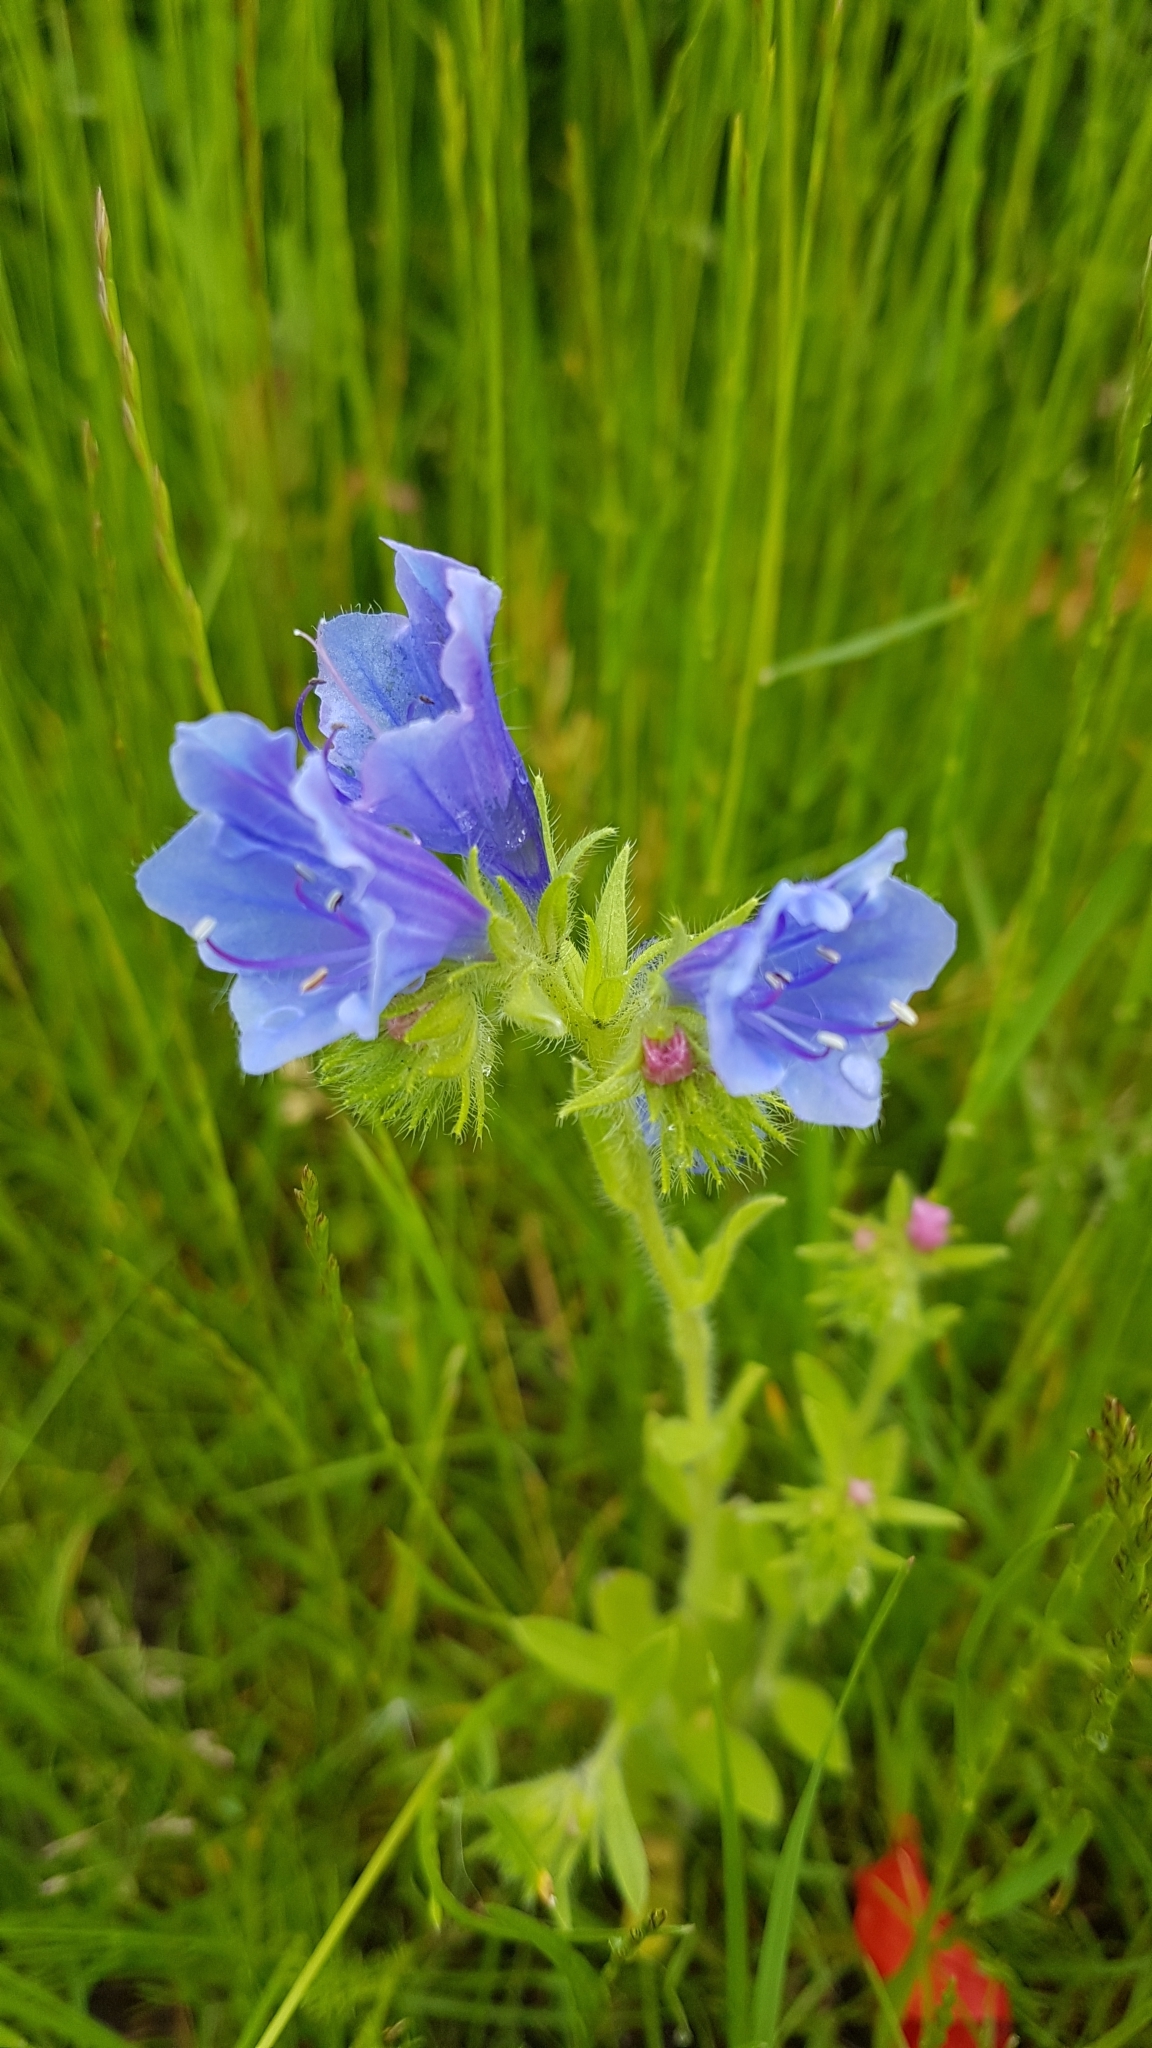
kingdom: Plantae
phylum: Tracheophyta
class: Magnoliopsida
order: Boraginales
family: Boraginaceae
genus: Echium
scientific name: Echium vulgare
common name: Common viper's bugloss
